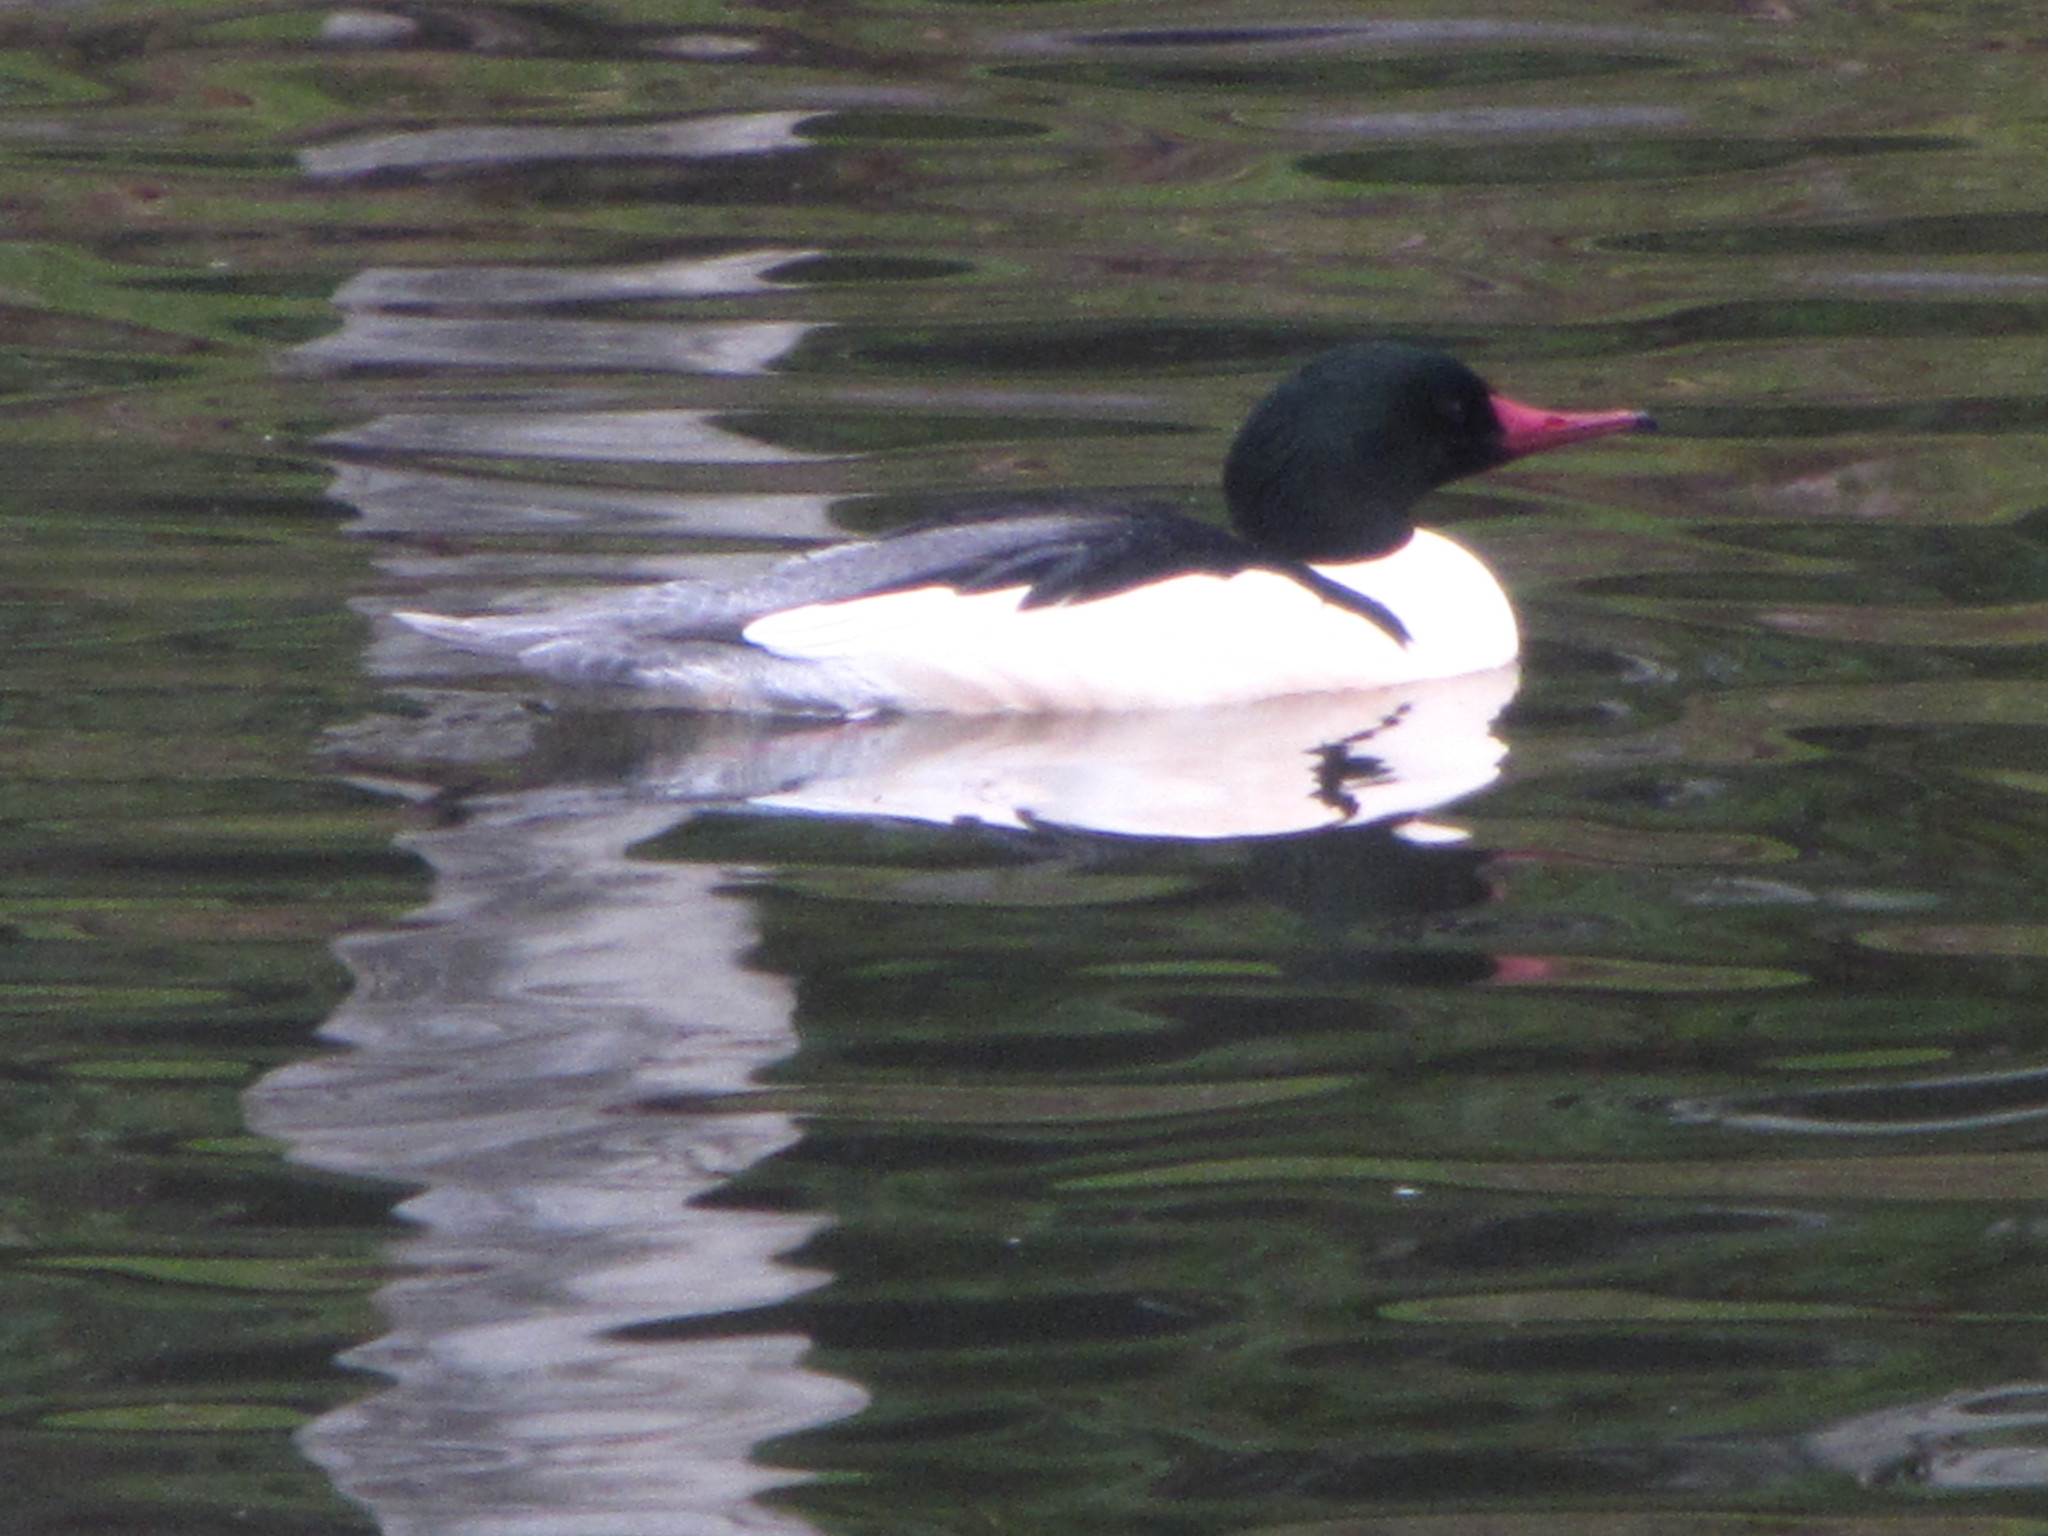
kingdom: Animalia
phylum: Chordata
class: Aves
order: Anseriformes
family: Anatidae
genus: Mergus
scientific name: Mergus merganser
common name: Common merganser
